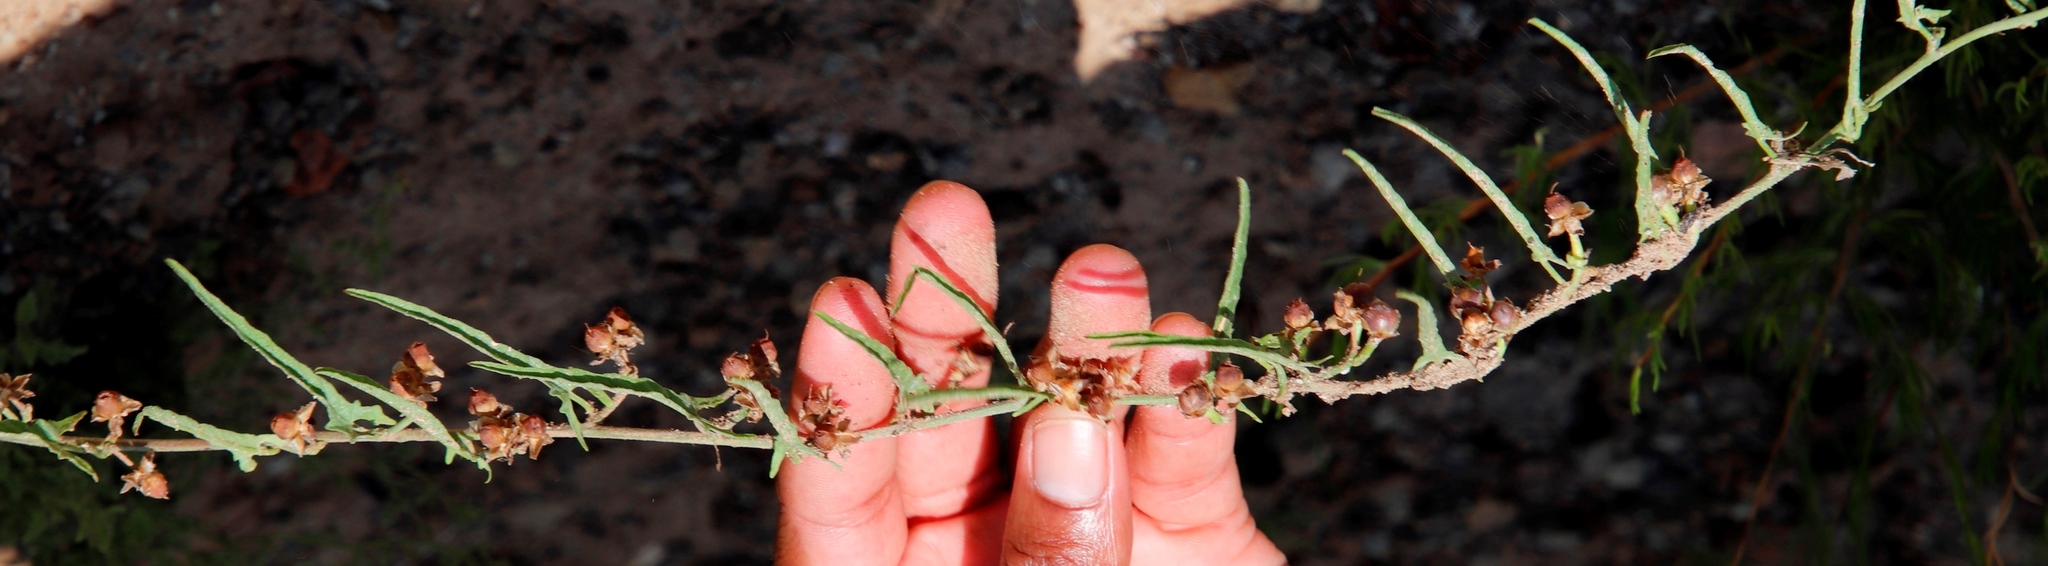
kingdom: Plantae
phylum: Tracheophyta
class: Magnoliopsida
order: Solanales
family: Convolvulaceae
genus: Convolvulus
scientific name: Convolvulus sagittatus
